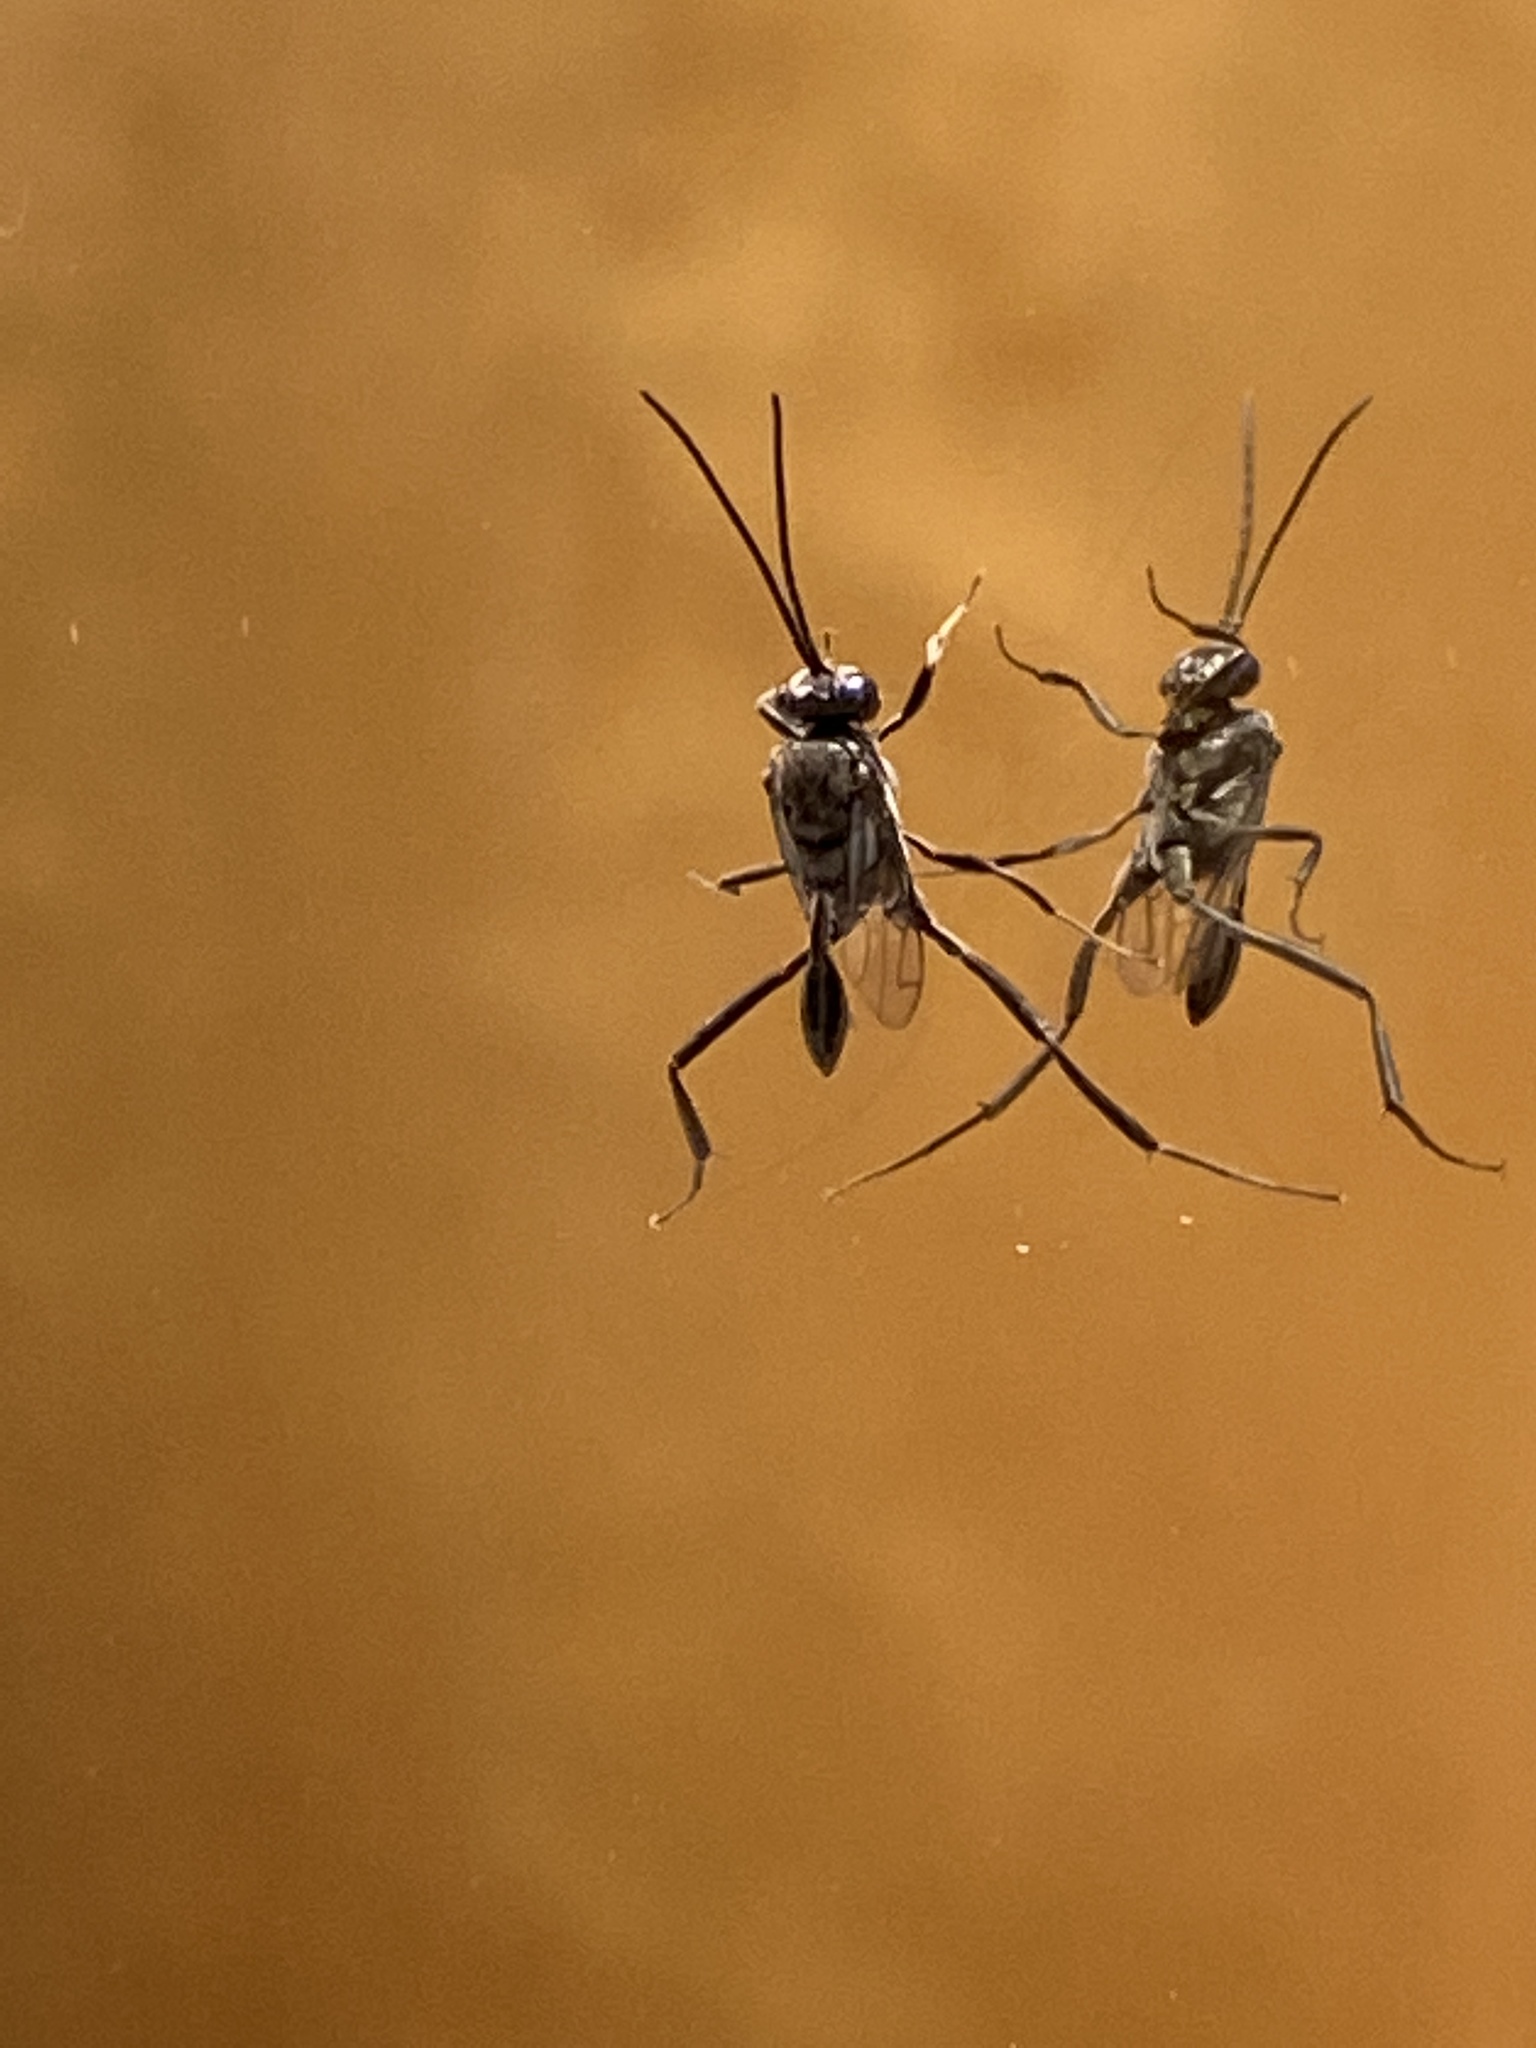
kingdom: Animalia
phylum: Arthropoda
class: Insecta
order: Hymenoptera
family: Evaniidae
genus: Evania
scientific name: Evania appendigaster
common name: Ensign wasp
